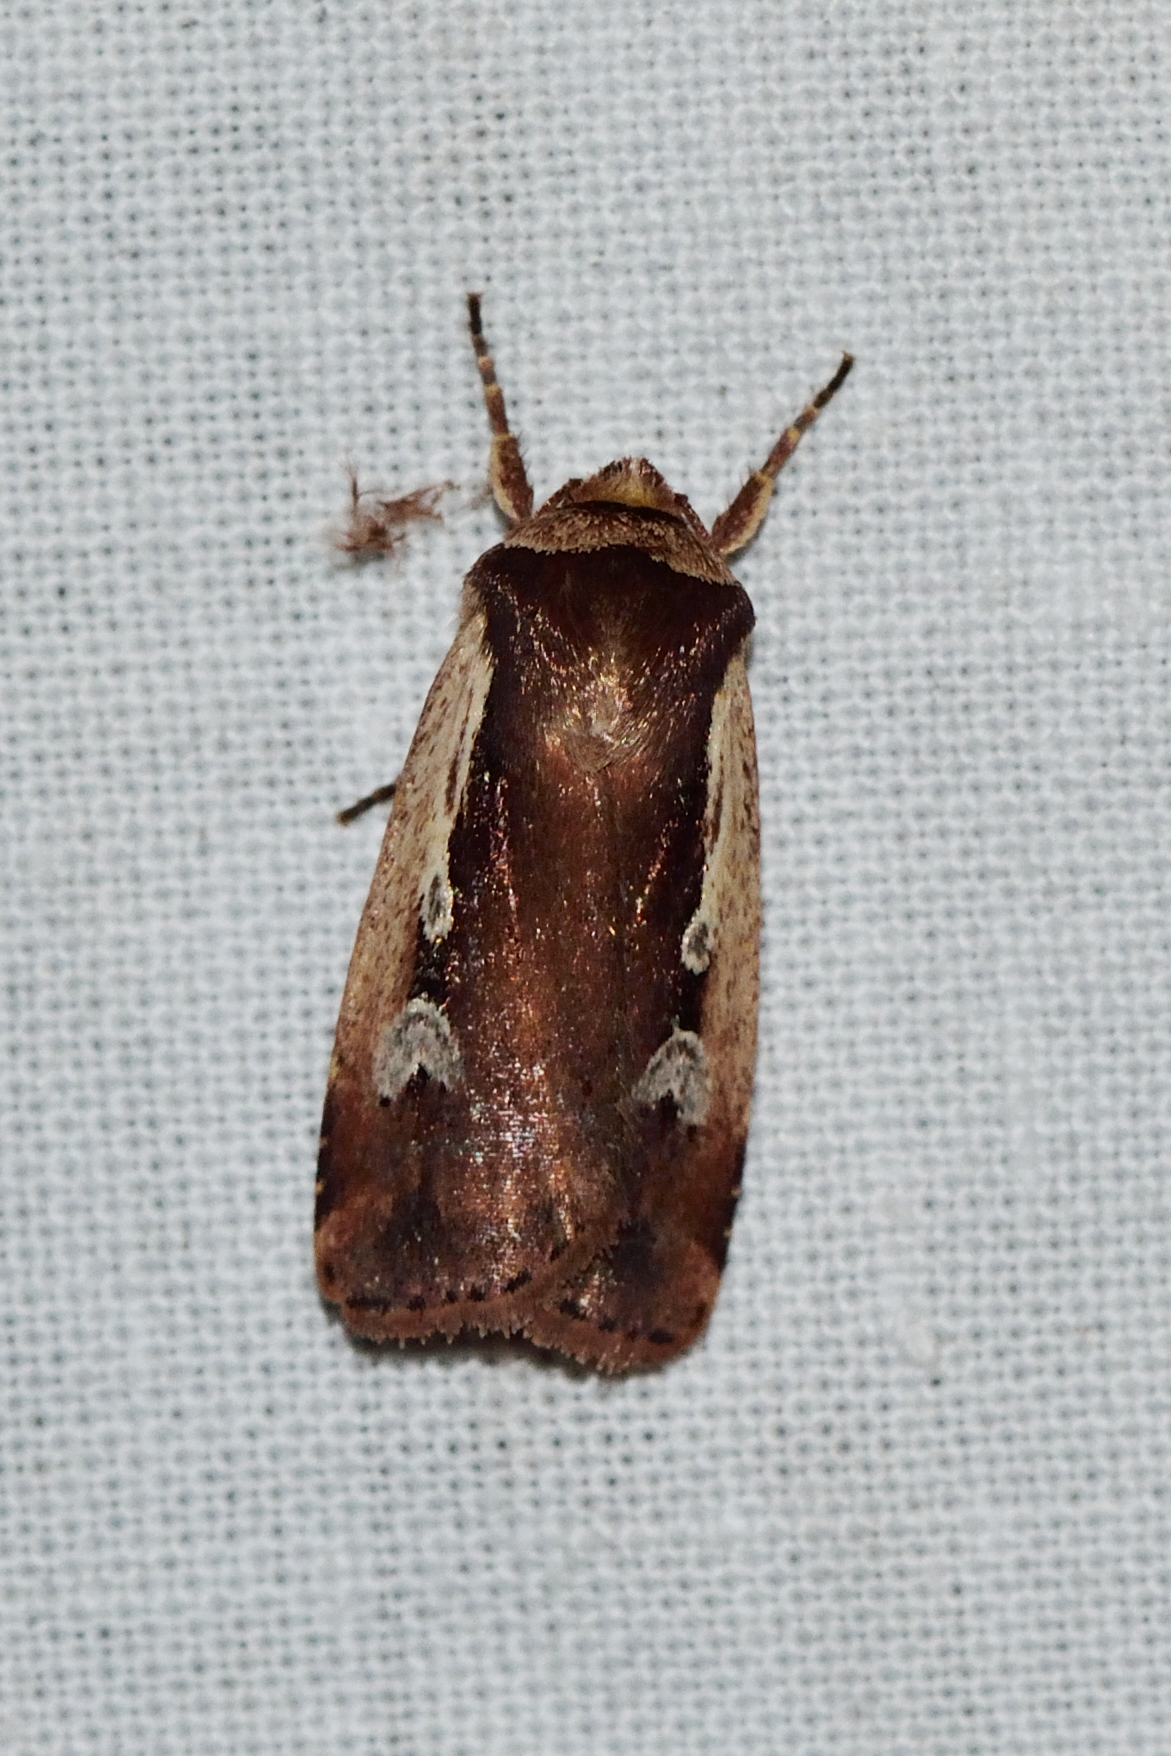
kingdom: Animalia
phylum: Arthropoda
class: Insecta
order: Lepidoptera
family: Noctuidae
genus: Ochropleura
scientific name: Ochropleura plecta
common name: Flame shoulder
